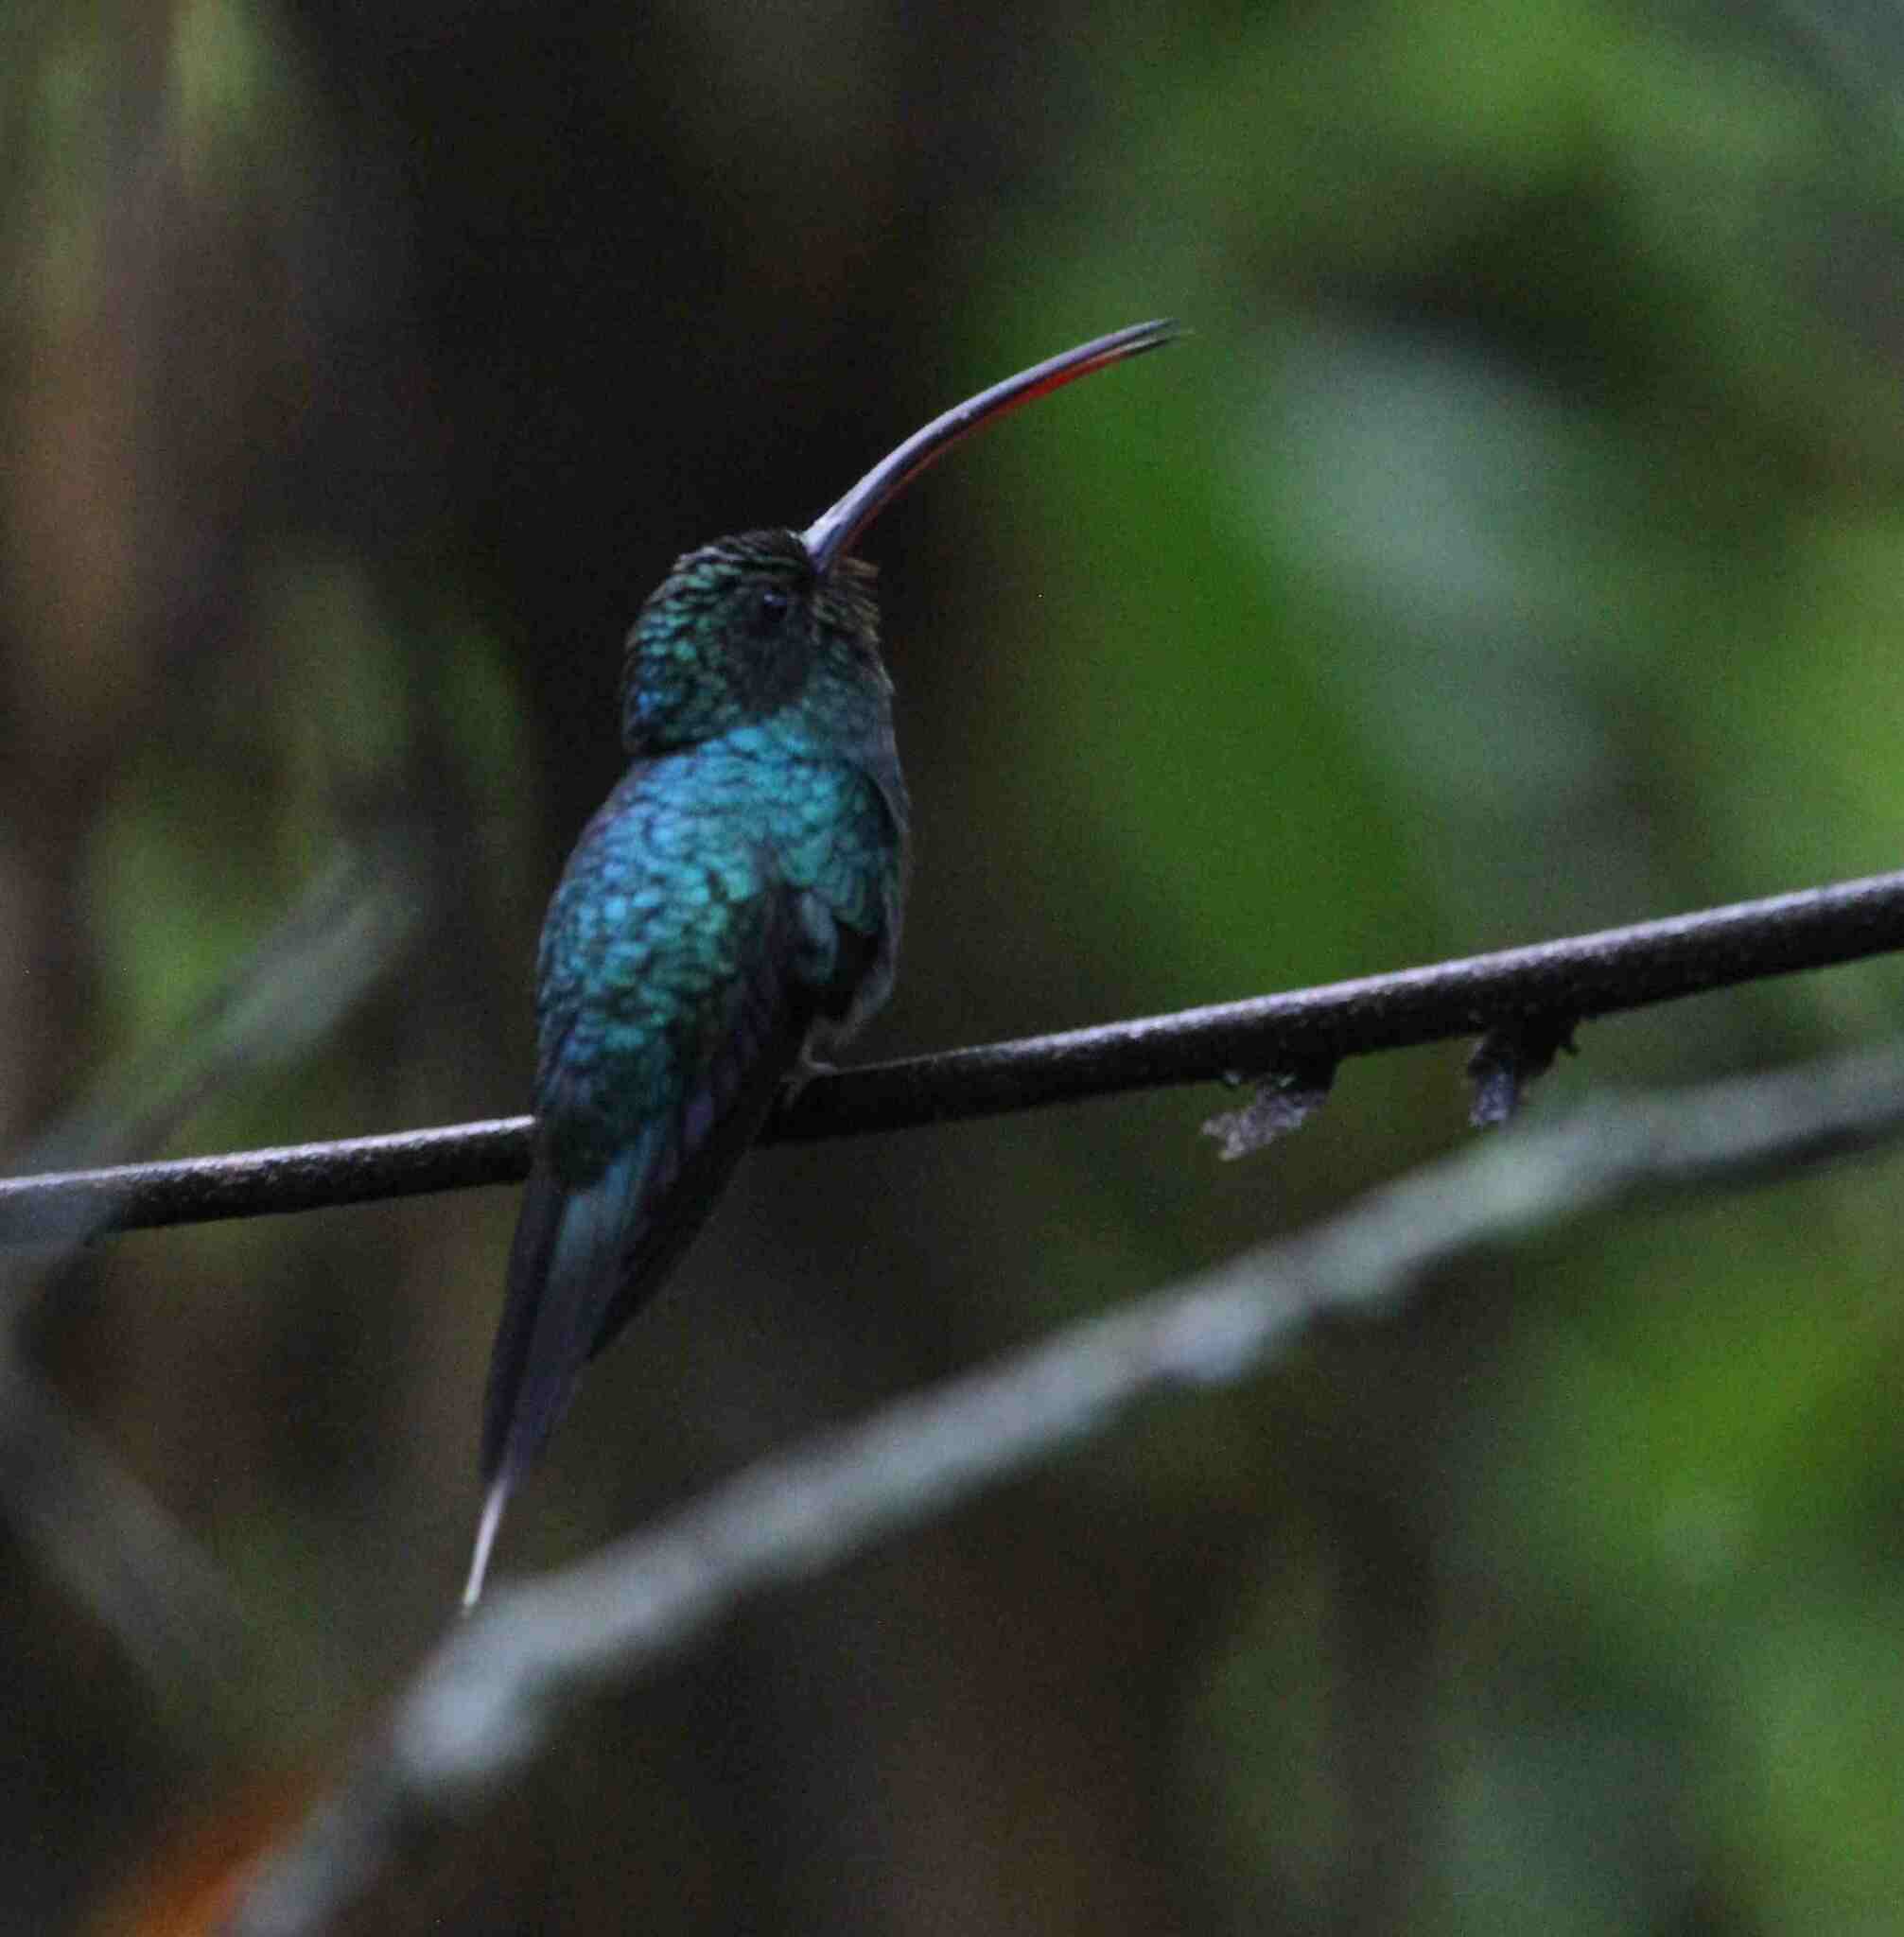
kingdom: Animalia
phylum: Chordata
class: Aves
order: Apodiformes
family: Trochilidae
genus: Phaethornis
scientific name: Phaethornis guy
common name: Green hermit
